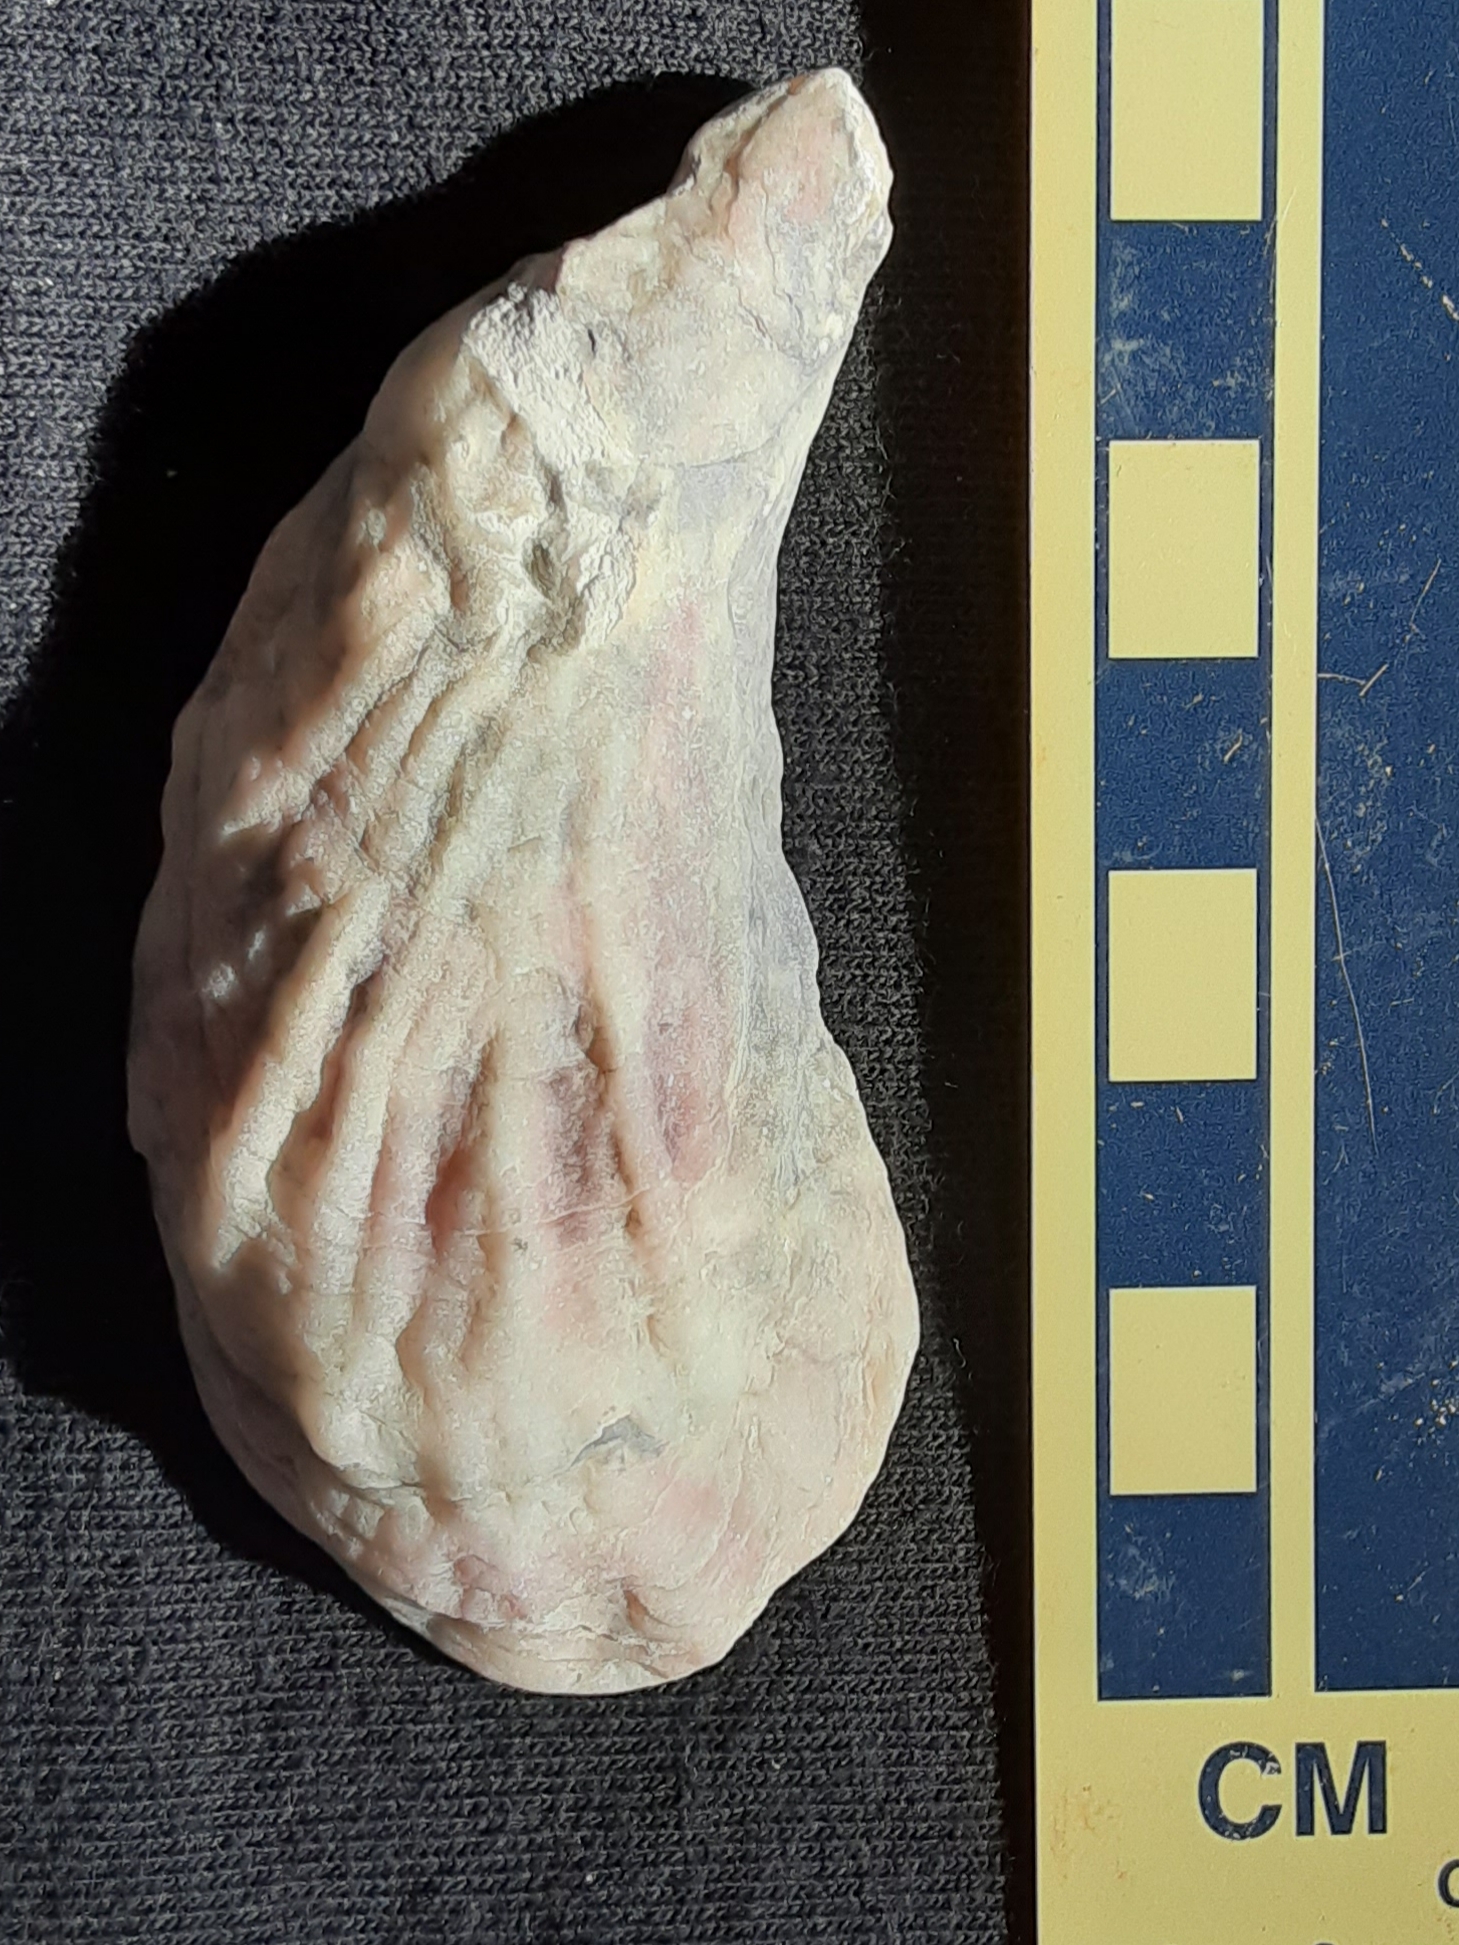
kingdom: Animalia
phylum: Mollusca
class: Bivalvia
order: Ostreida
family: Ostreidae
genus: Crassostrea
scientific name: Crassostrea virginica
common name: American oyster
